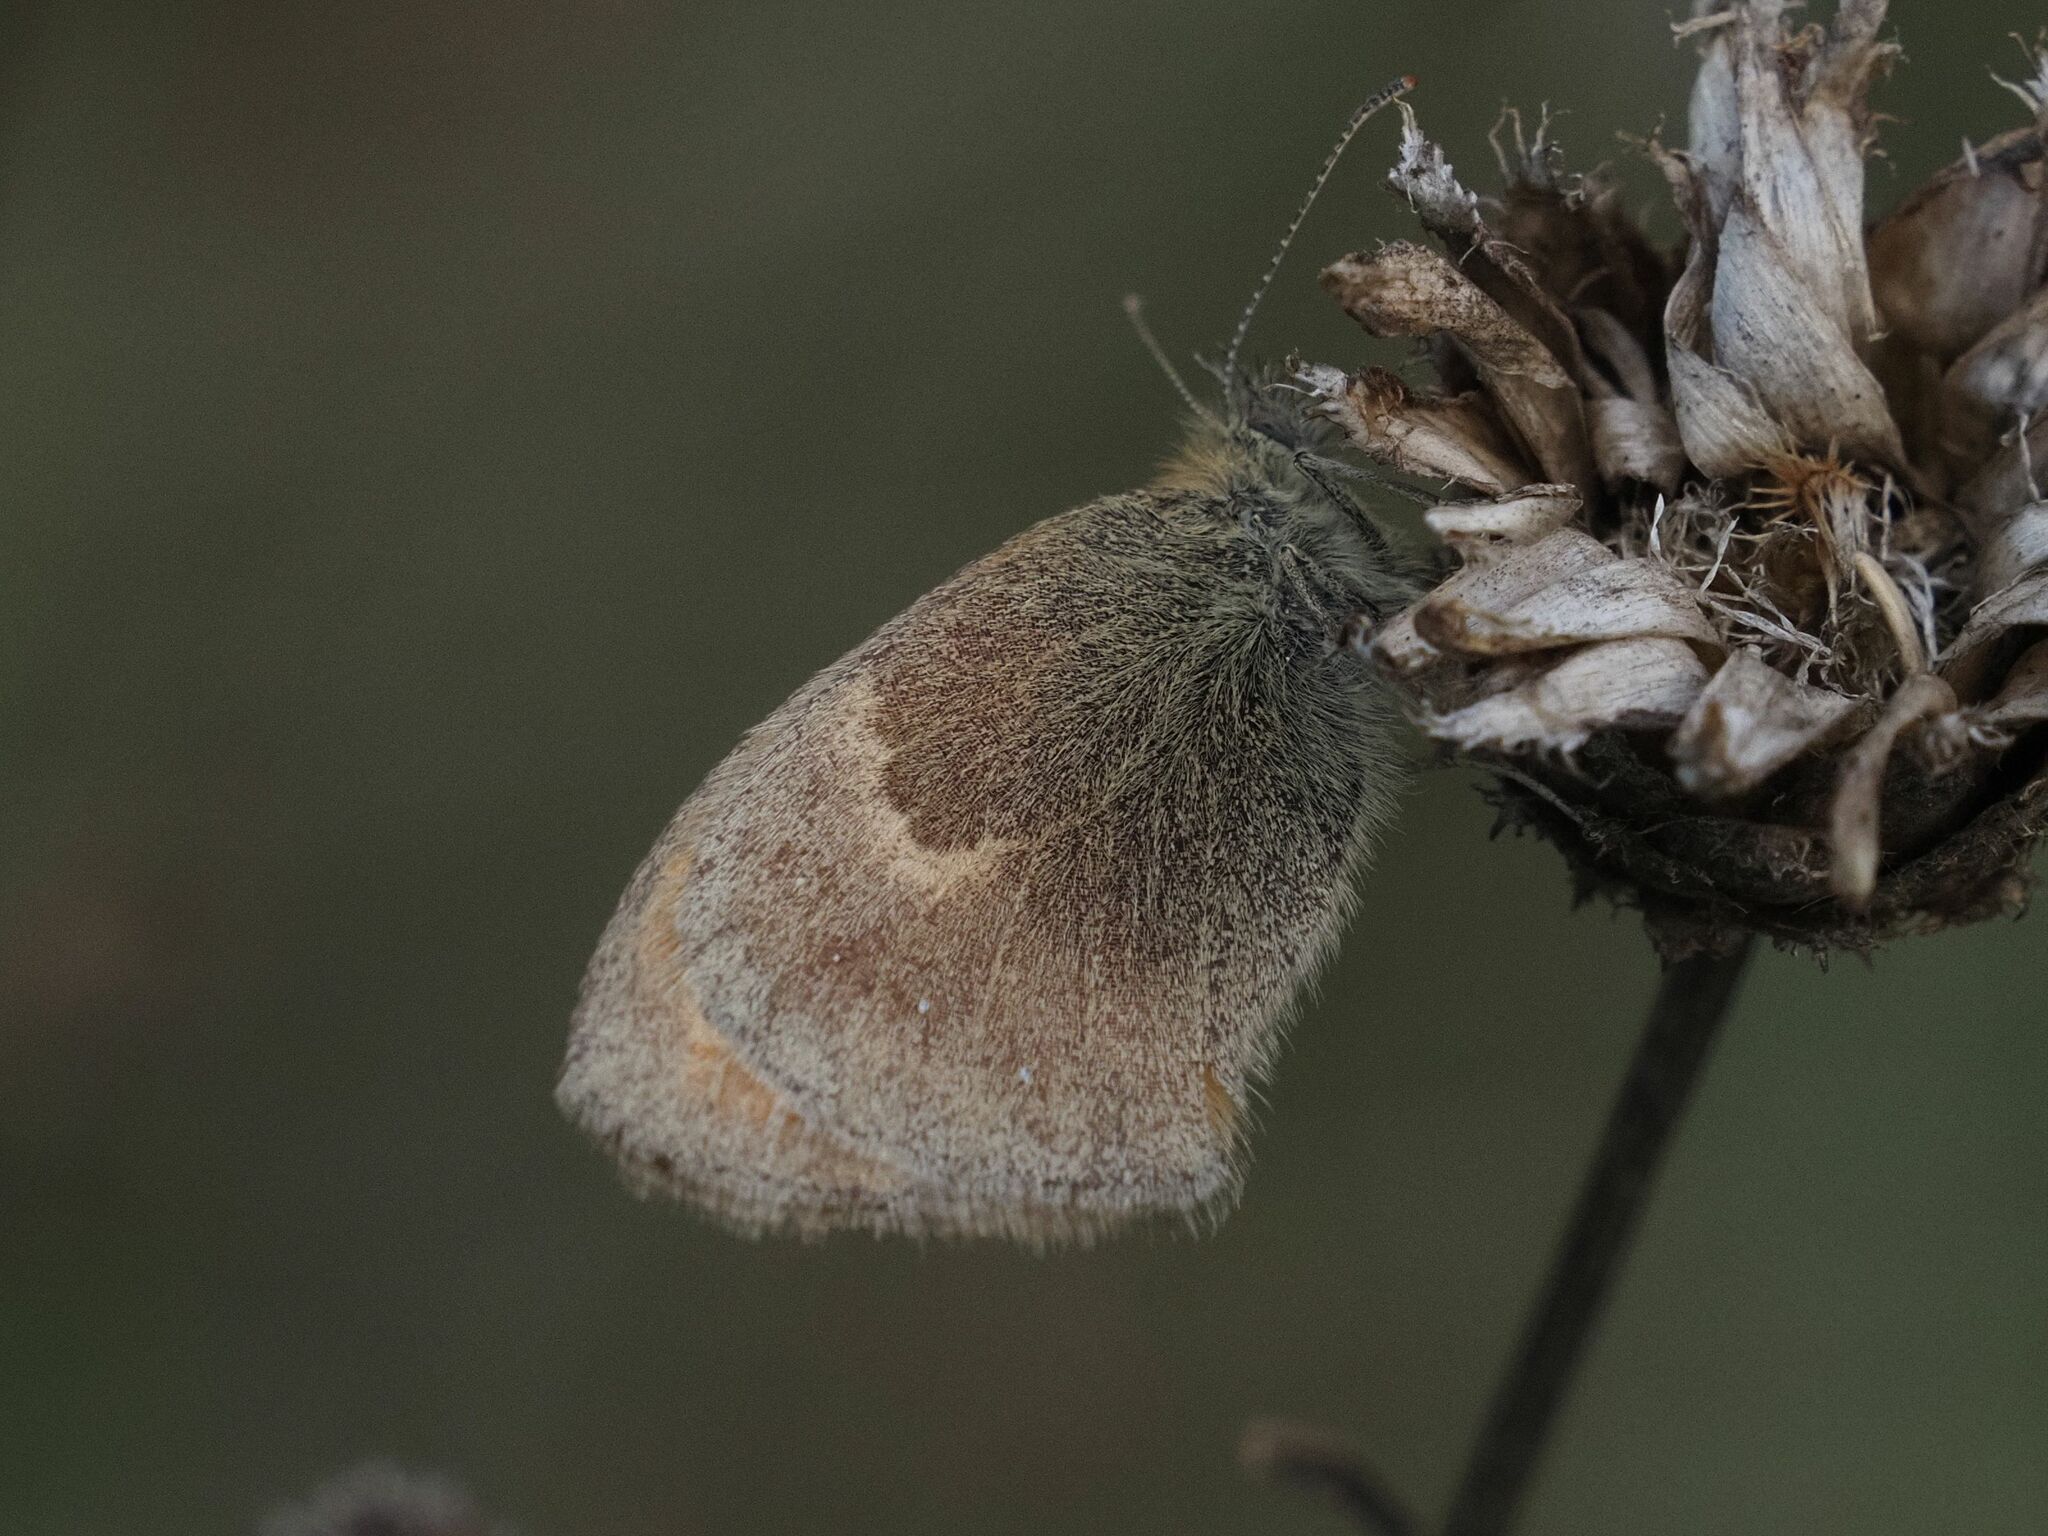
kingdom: Animalia
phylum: Arthropoda
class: Insecta
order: Lepidoptera
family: Nymphalidae
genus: Coenonympha
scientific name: Coenonympha pamphilus
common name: Small heath
